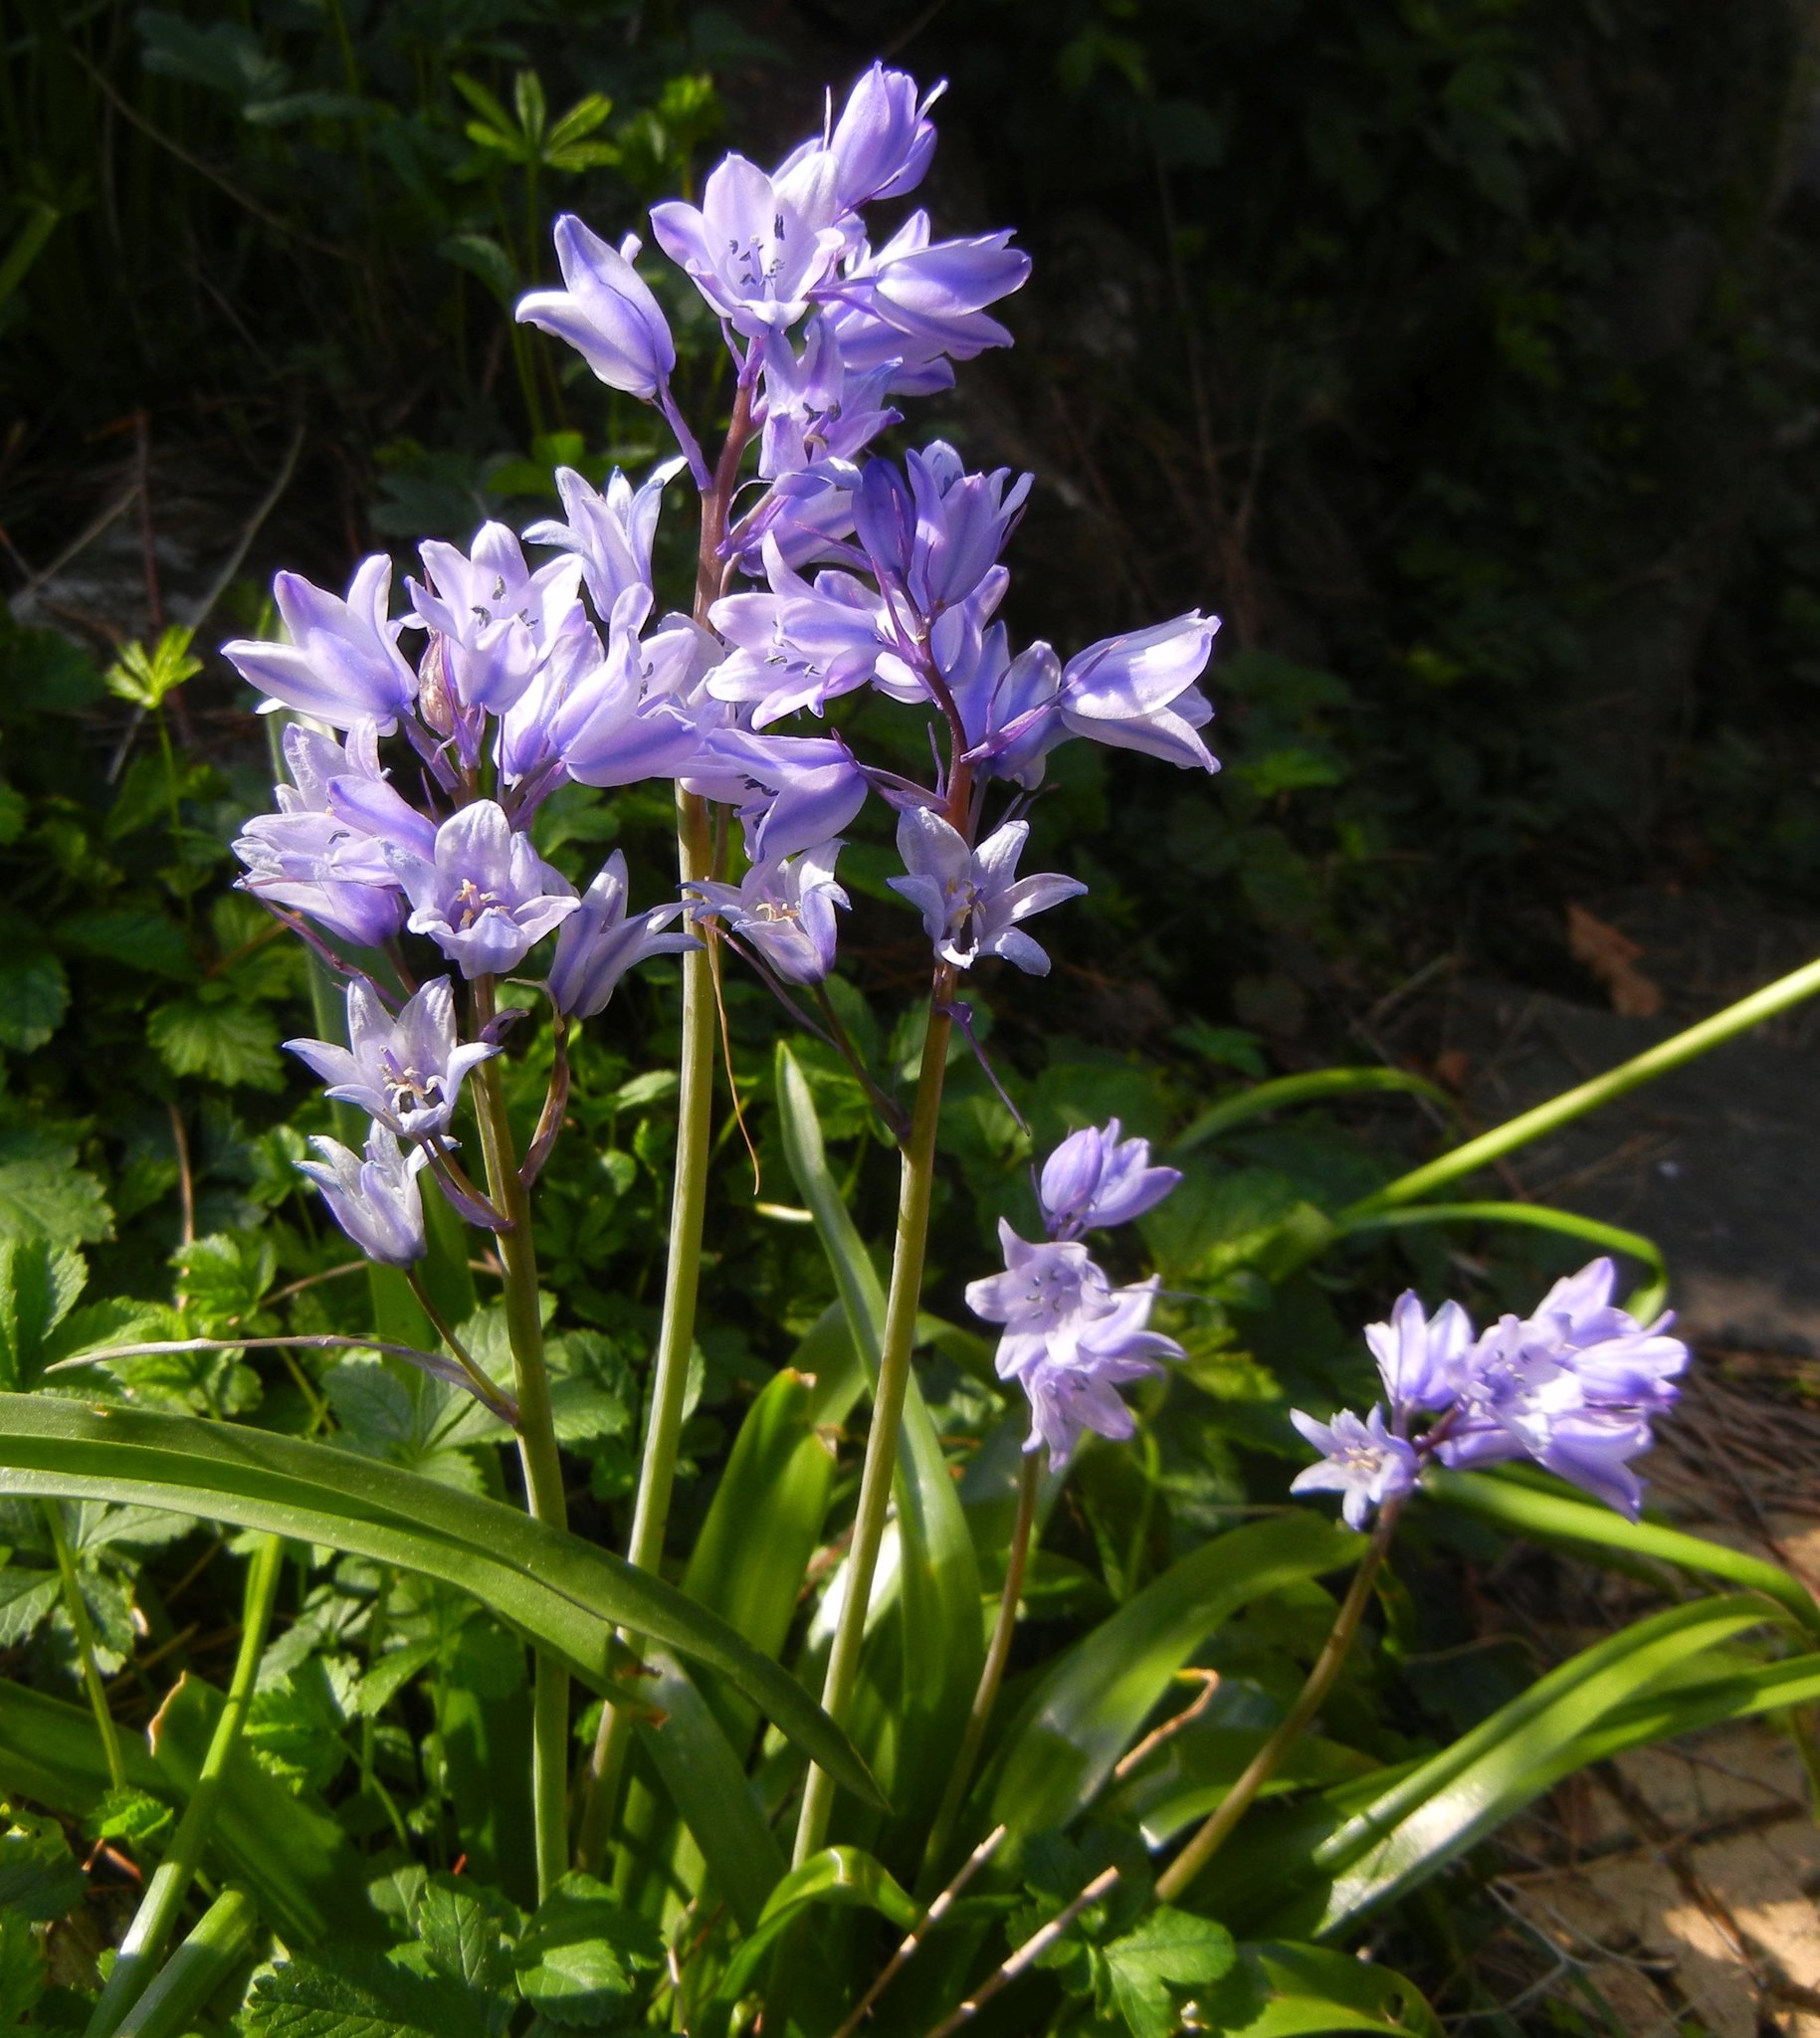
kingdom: Plantae
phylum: Tracheophyta
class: Liliopsida
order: Asparagales
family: Asparagaceae
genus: Hyacinthoides
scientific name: Hyacinthoides massartiana
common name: Hyacinthoides
